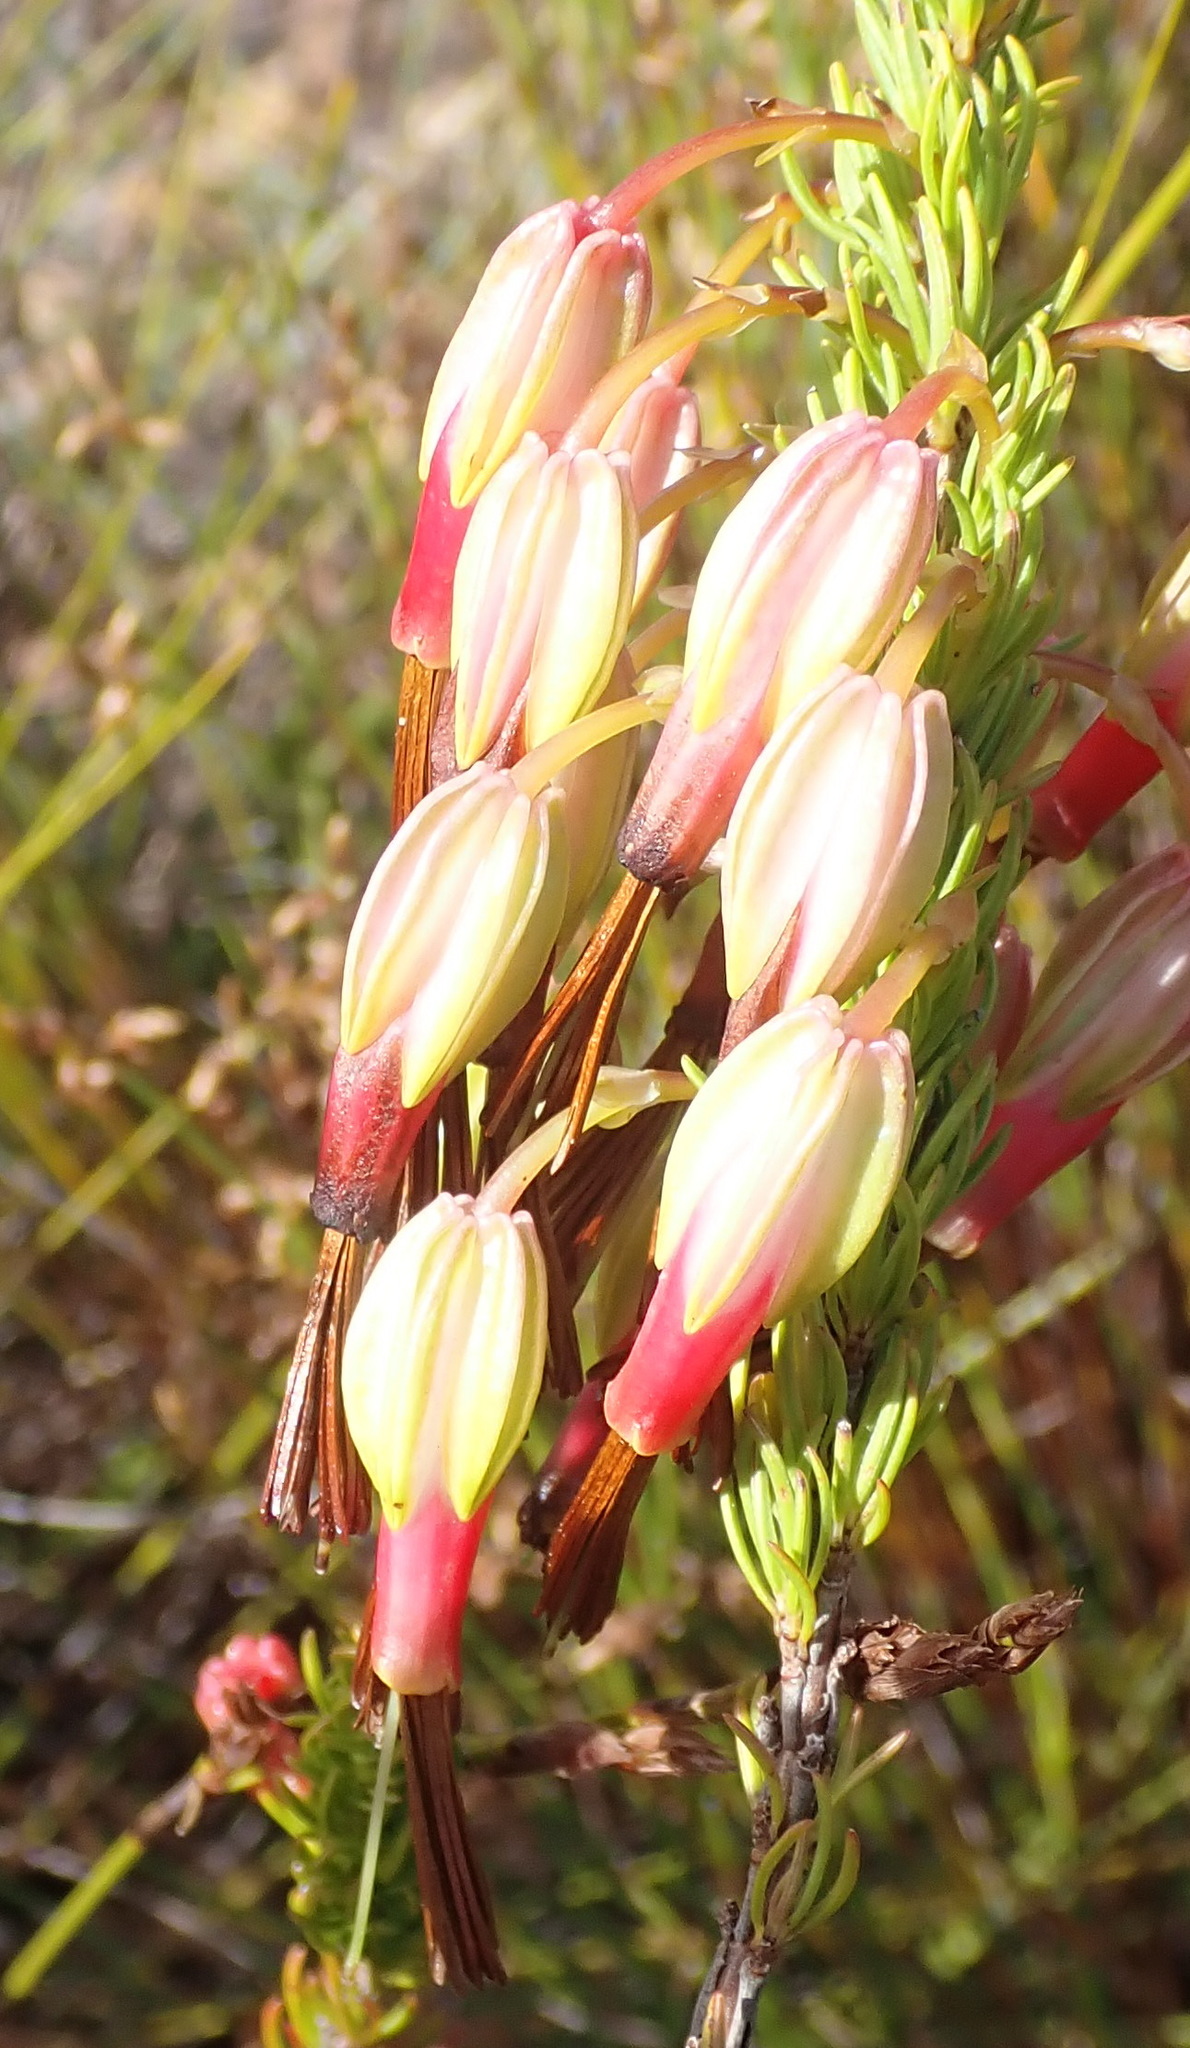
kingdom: Plantae
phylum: Tracheophyta
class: Magnoliopsida
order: Ericales
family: Ericaceae
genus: Erica
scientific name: Erica plukenetii
